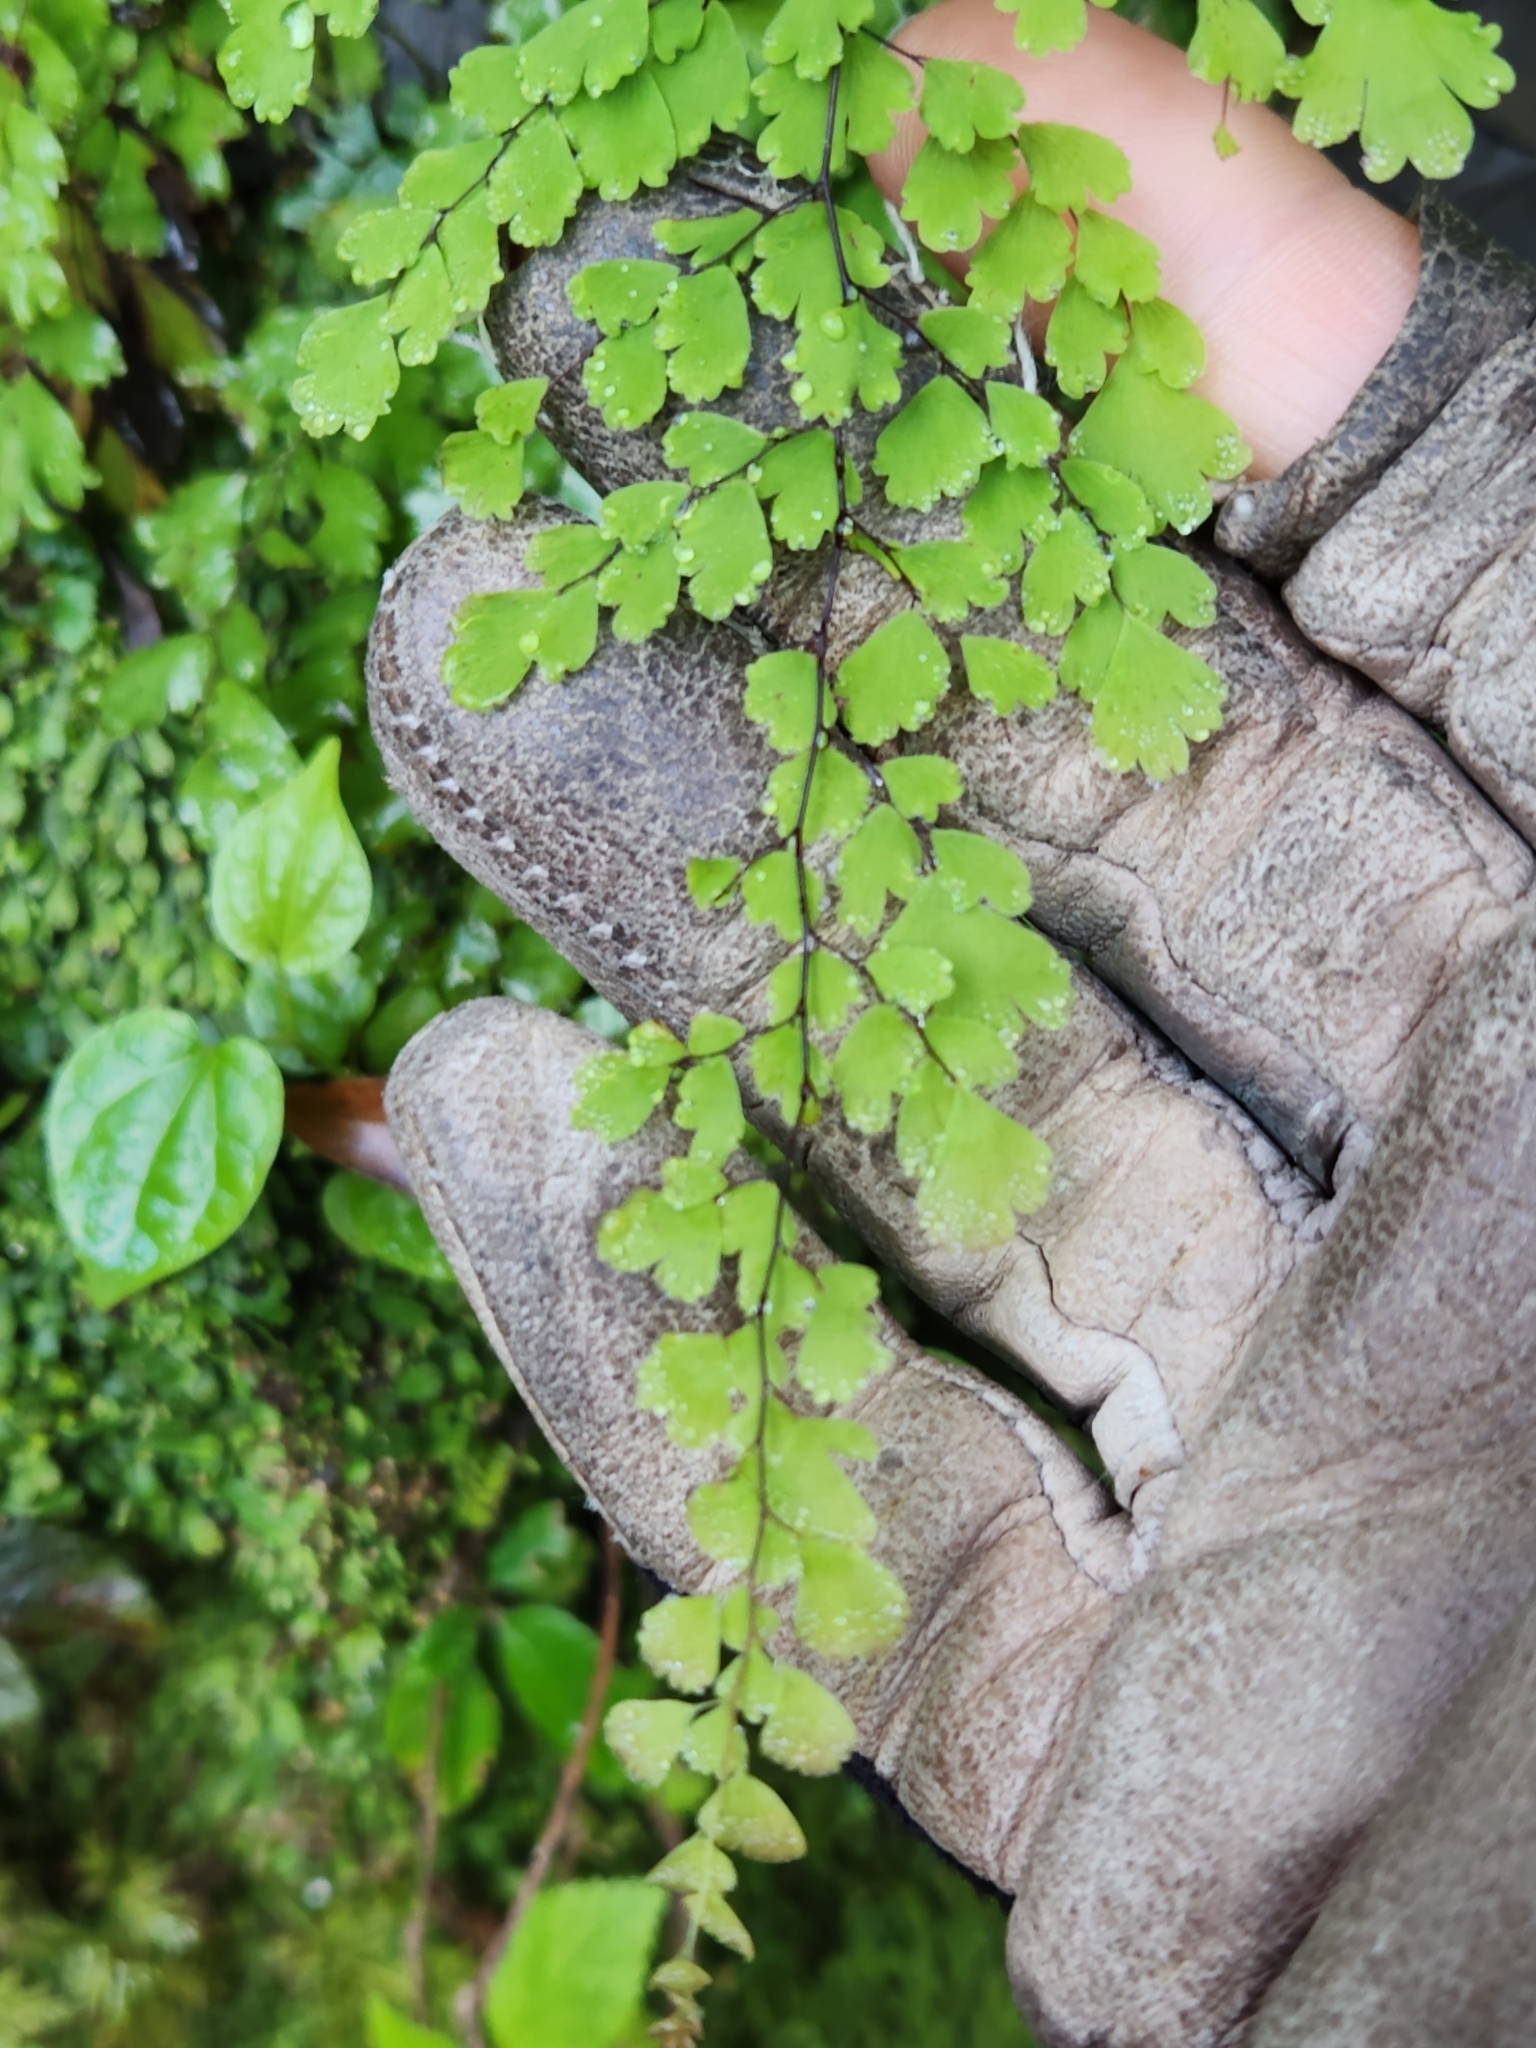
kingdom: Plantae
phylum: Tracheophyta
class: Polypodiopsida
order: Polypodiales
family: Pteridaceae
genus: Adiantum
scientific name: Adiantum concinnum
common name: Brittle maidenhair fern
